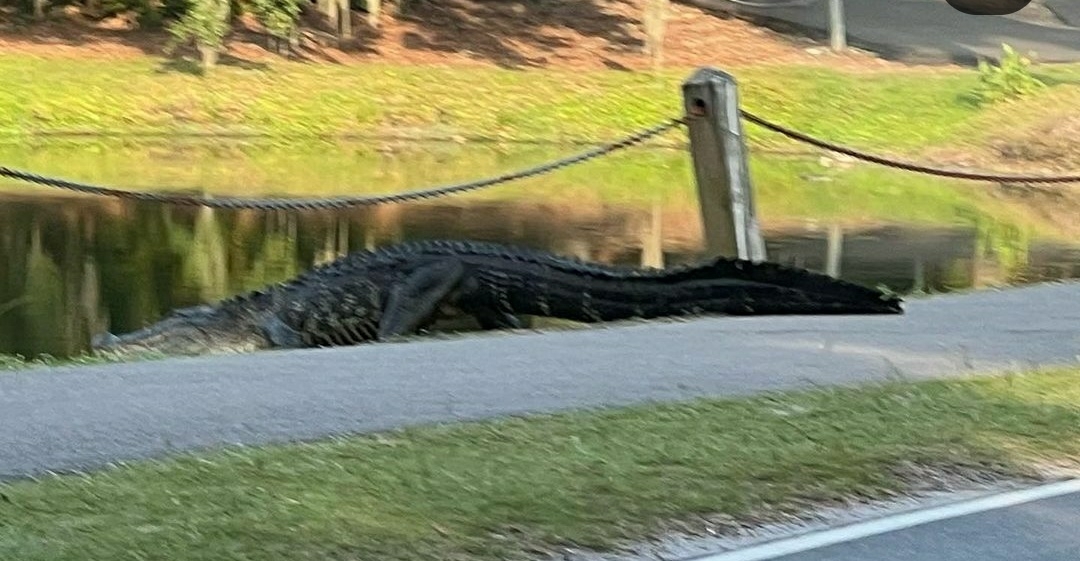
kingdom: Animalia
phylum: Chordata
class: Crocodylia
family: Alligatoridae
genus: Alligator
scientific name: Alligator mississippiensis
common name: American alligator
